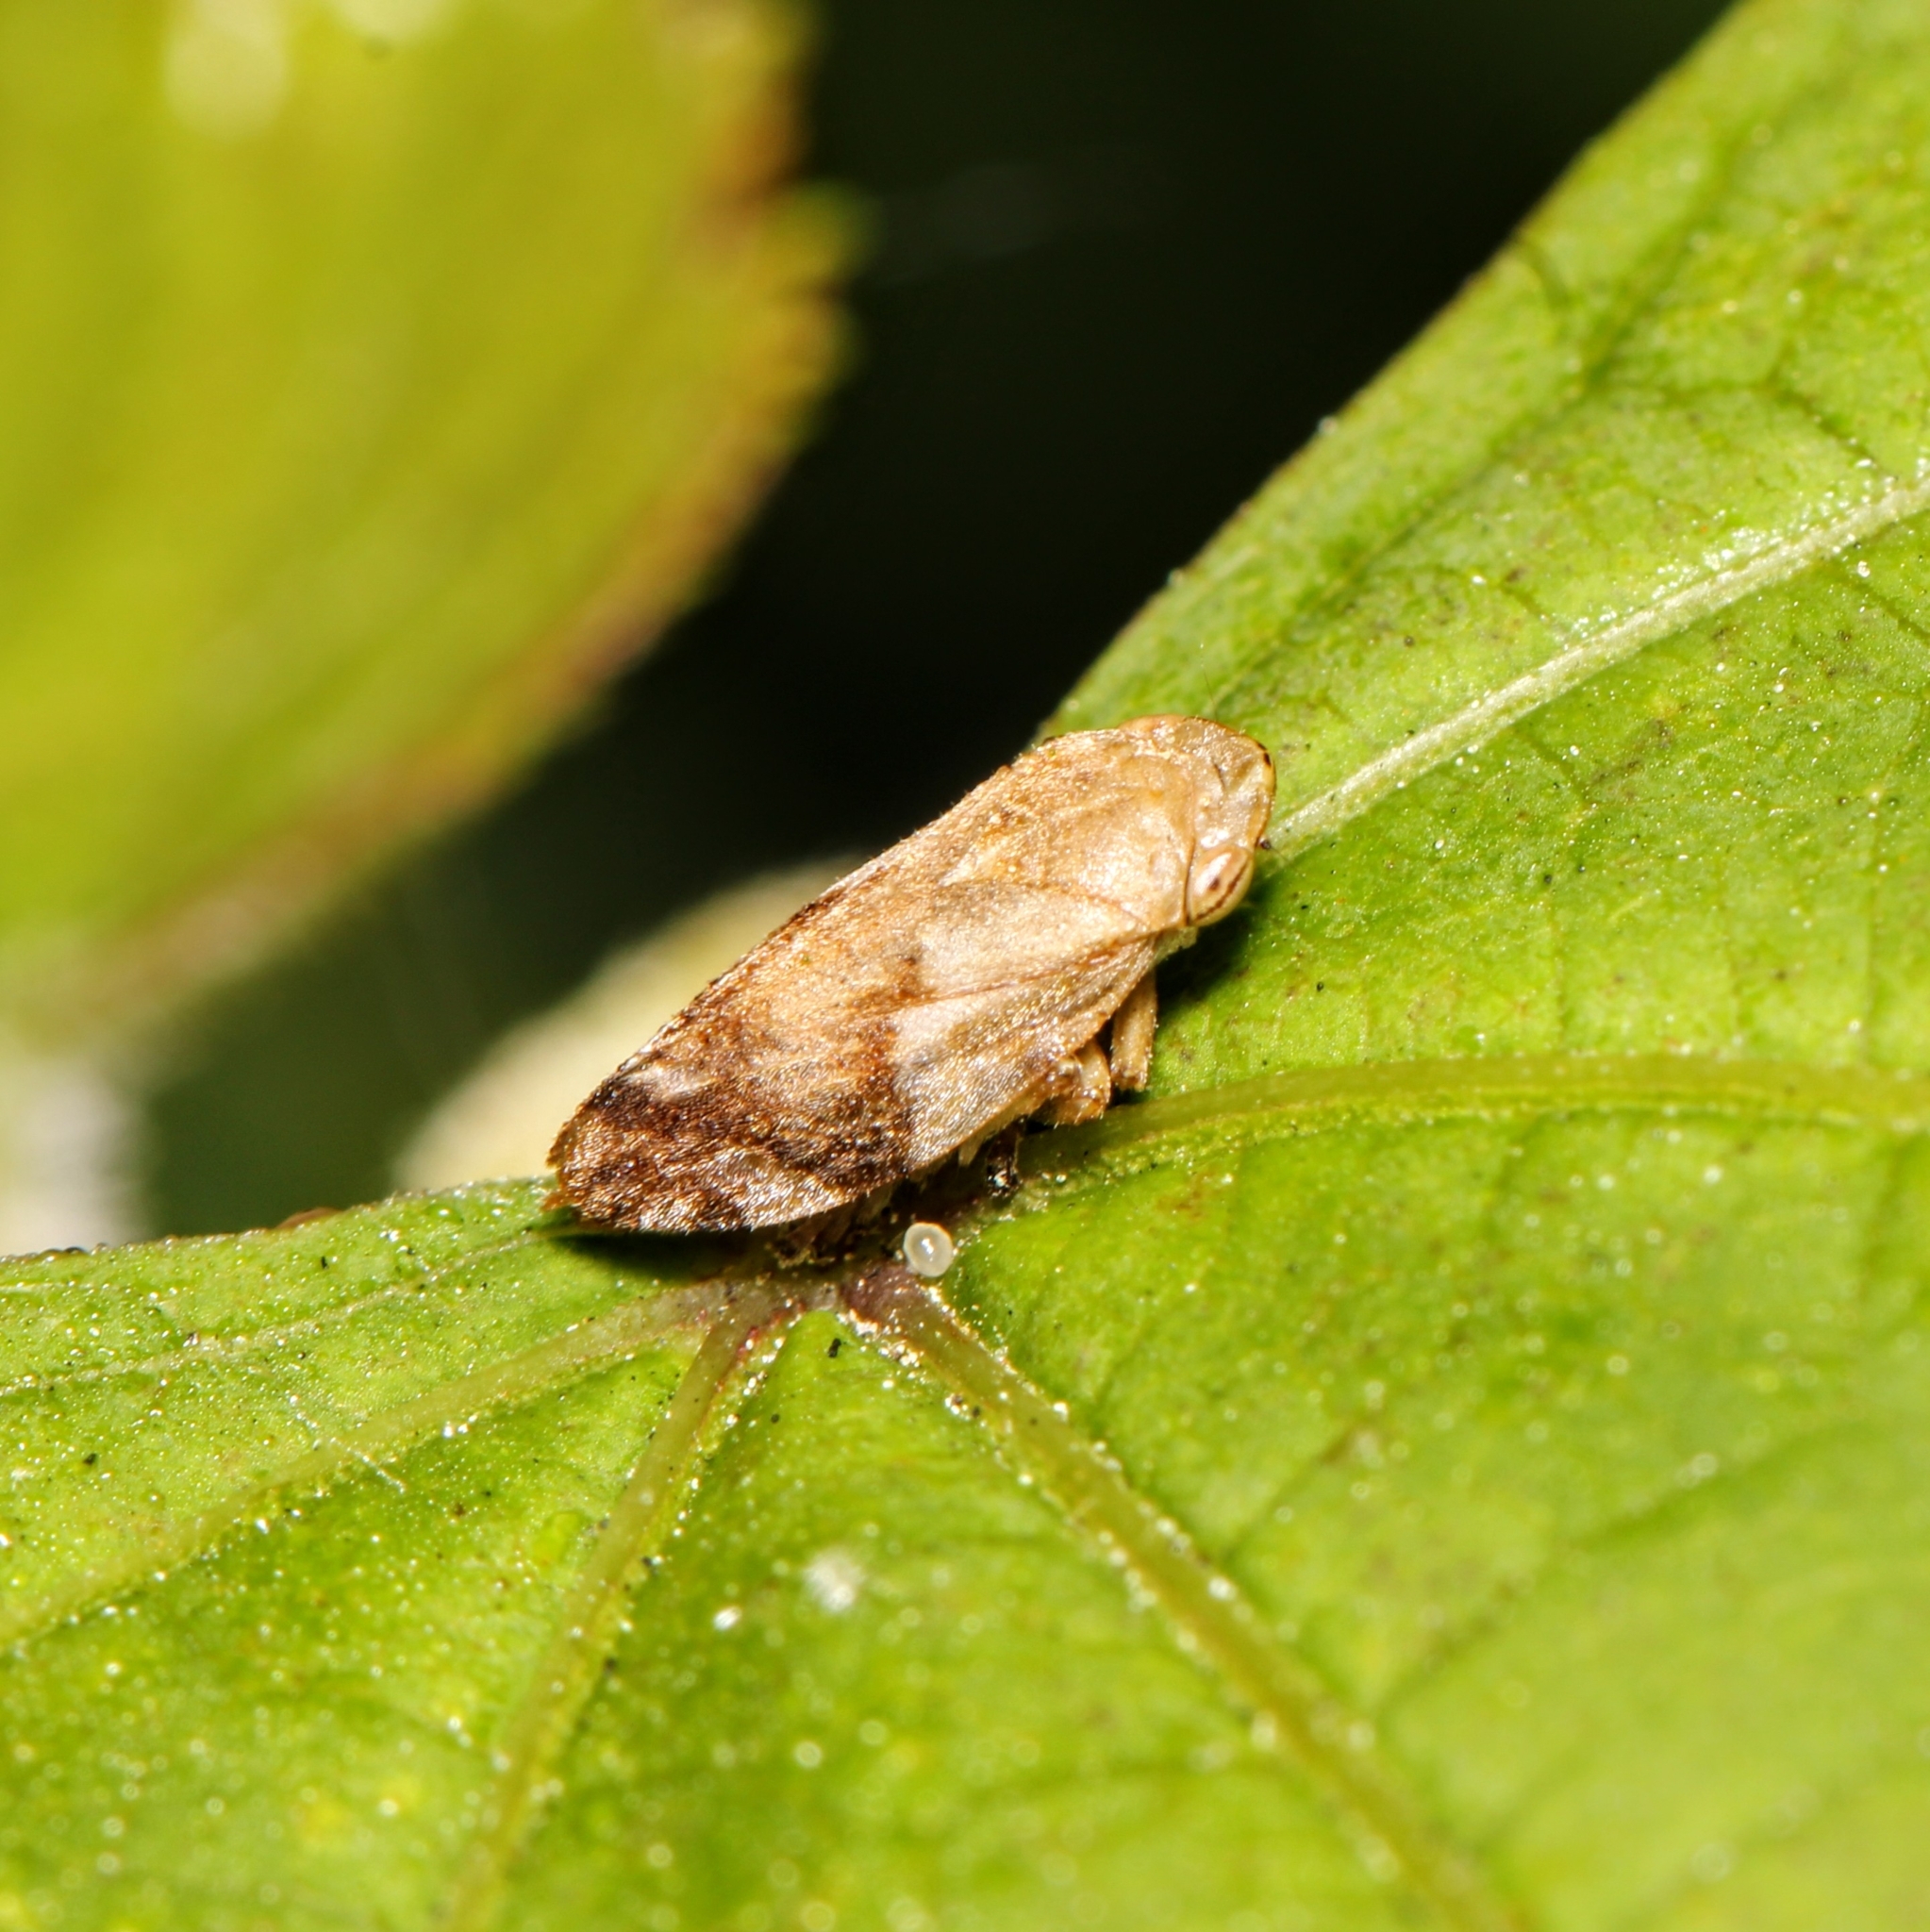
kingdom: Animalia
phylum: Arthropoda
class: Insecta
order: Hemiptera
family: Aphrophoridae
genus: Philaenus
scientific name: Philaenus spumarius
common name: Meadow spittlebug
